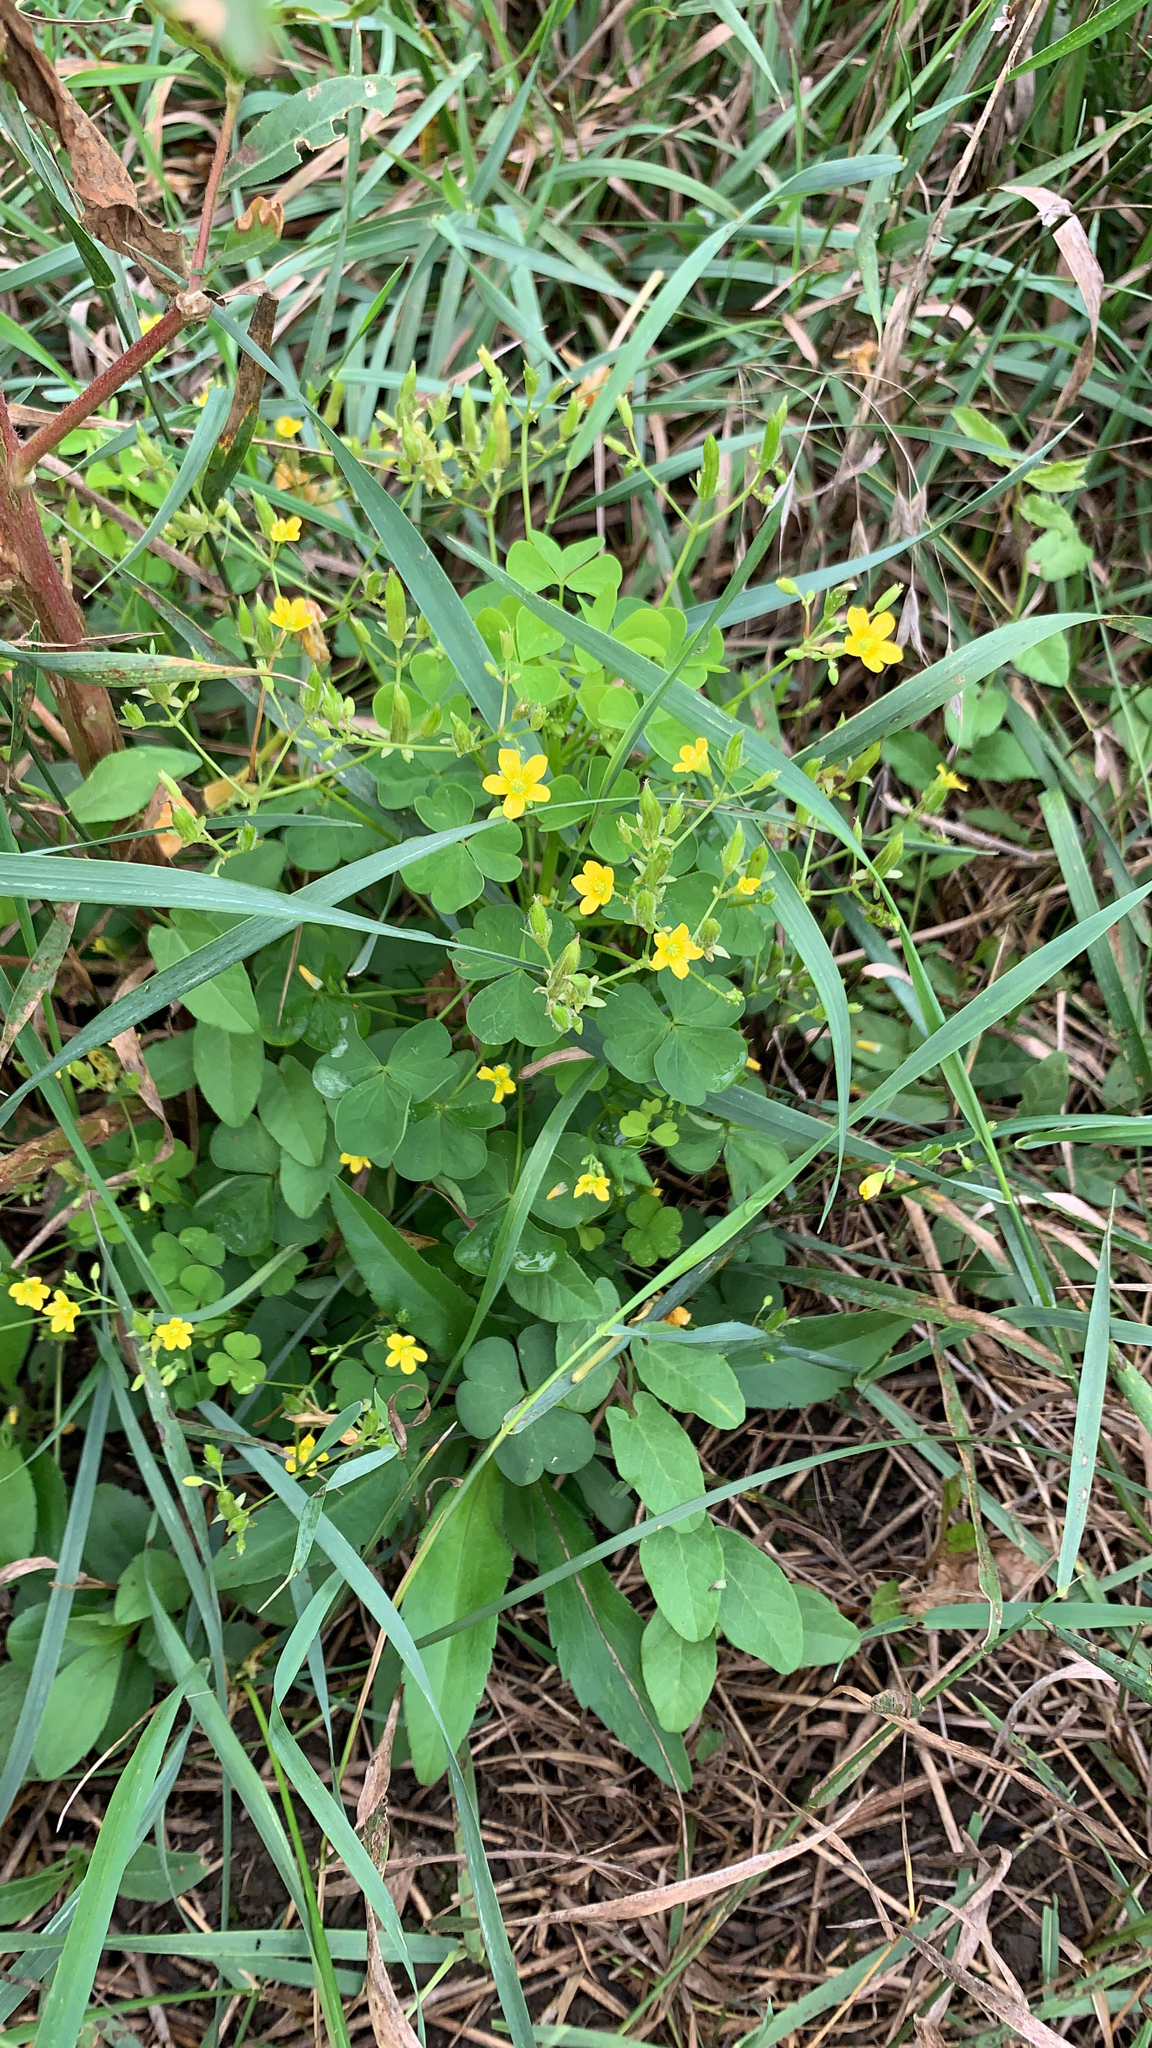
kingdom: Plantae
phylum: Tracheophyta
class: Magnoliopsida
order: Oxalidales
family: Oxalidaceae
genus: Oxalis
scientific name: Oxalis stricta
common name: Upright yellow-sorrel
